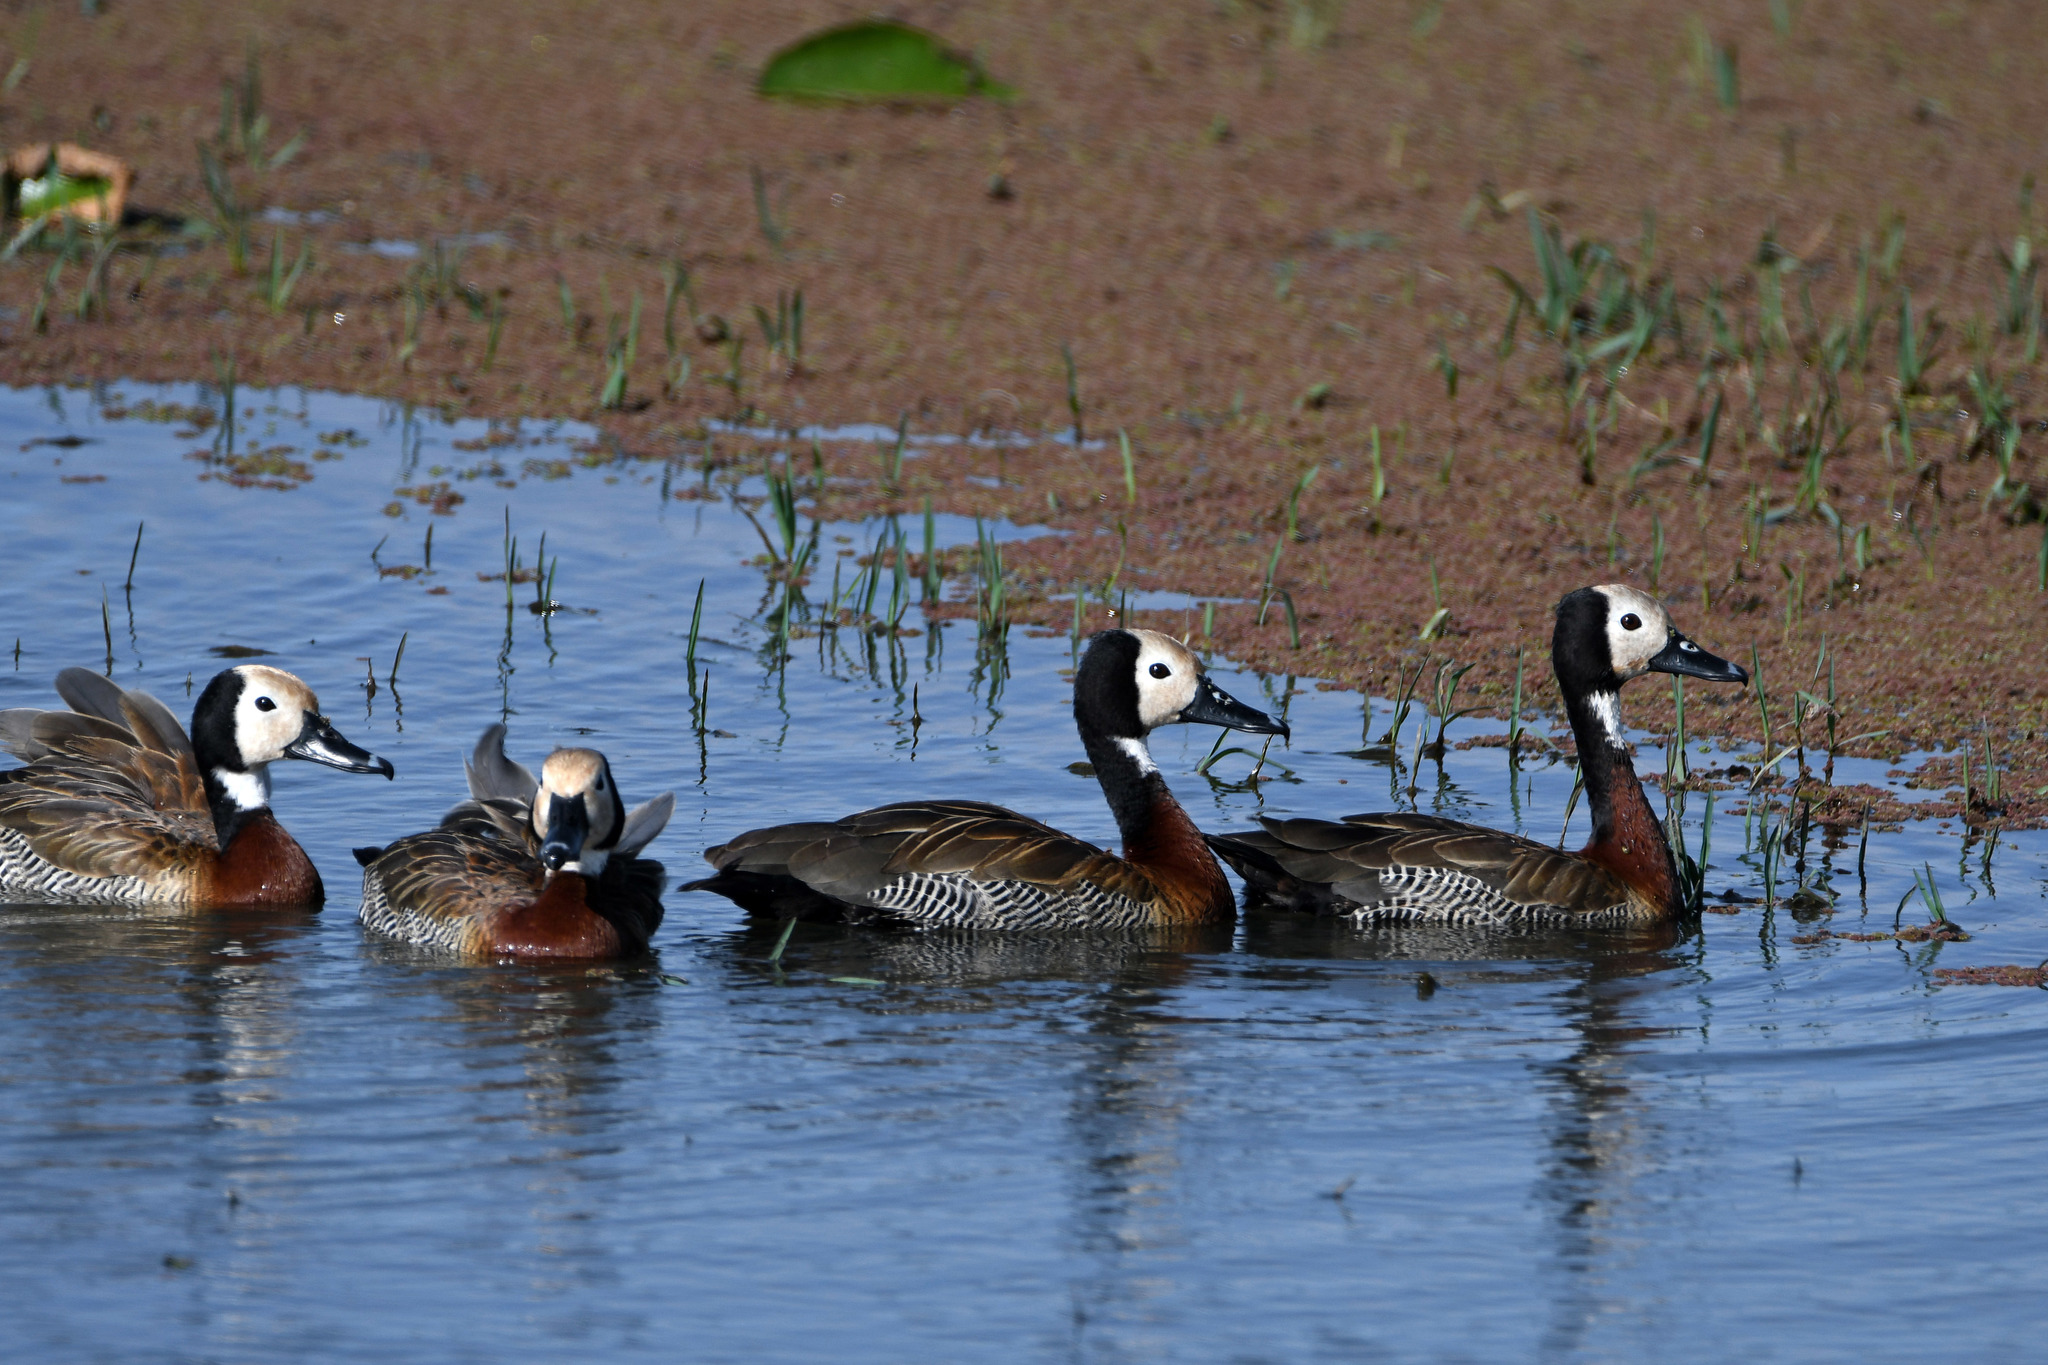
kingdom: Animalia
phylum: Chordata
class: Aves
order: Anseriformes
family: Anatidae
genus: Dendrocygna
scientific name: Dendrocygna viduata
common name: White-faced whistling duck
